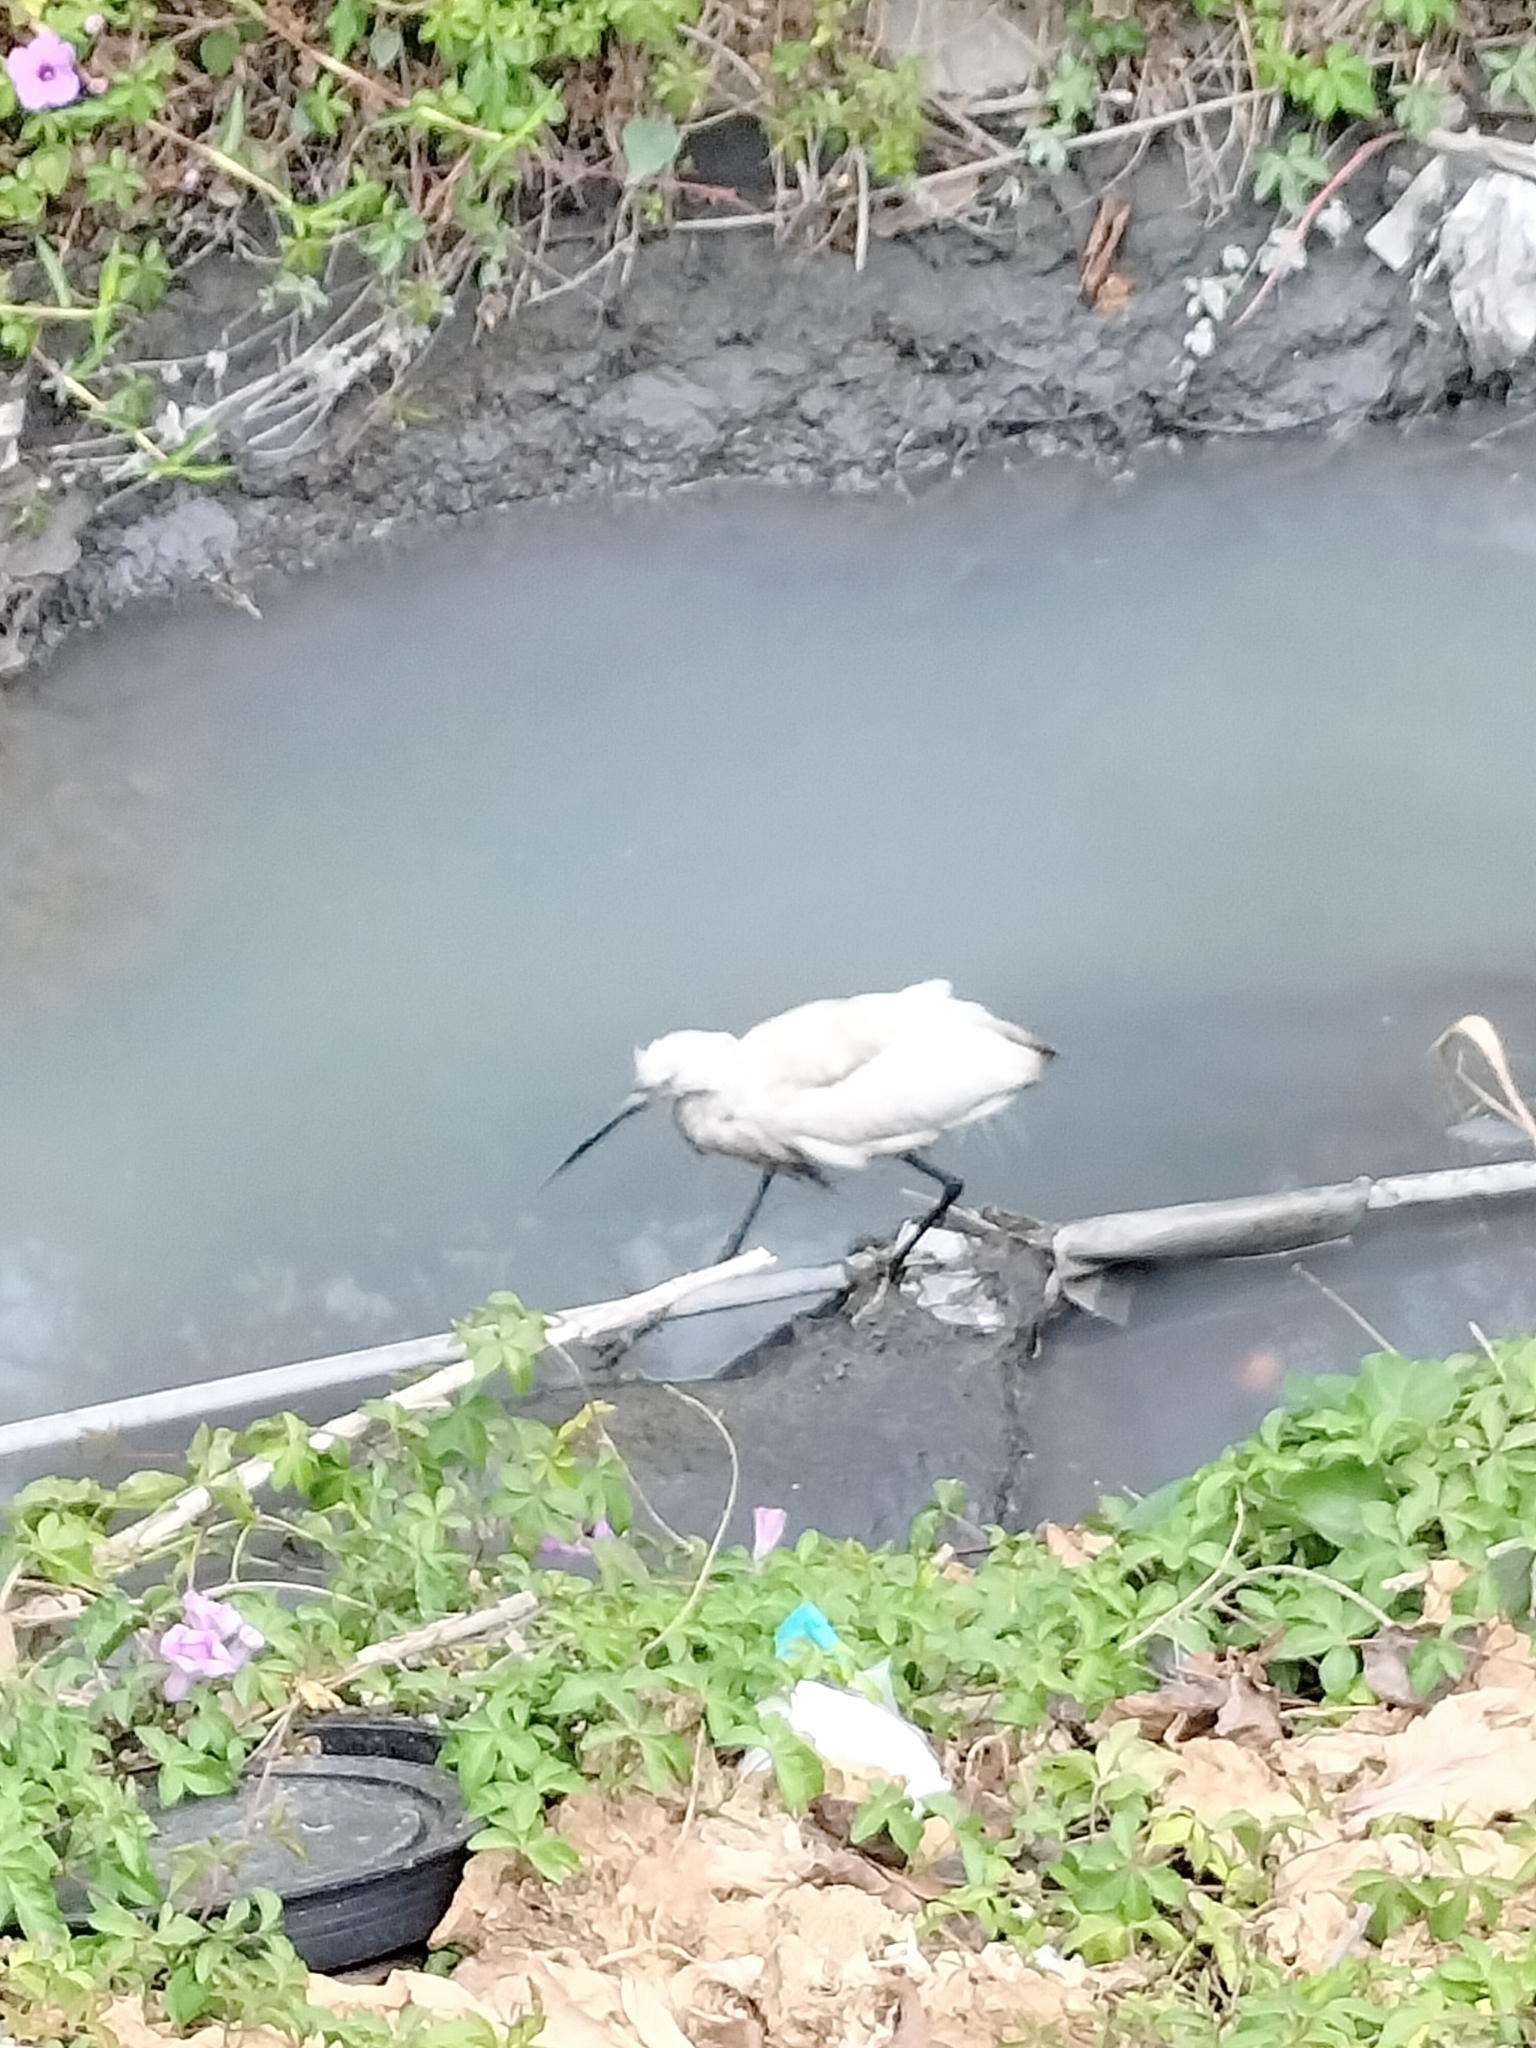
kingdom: Animalia
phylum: Chordata
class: Aves
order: Pelecaniformes
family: Ardeidae
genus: Egretta
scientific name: Egretta garzetta
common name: Little egret
